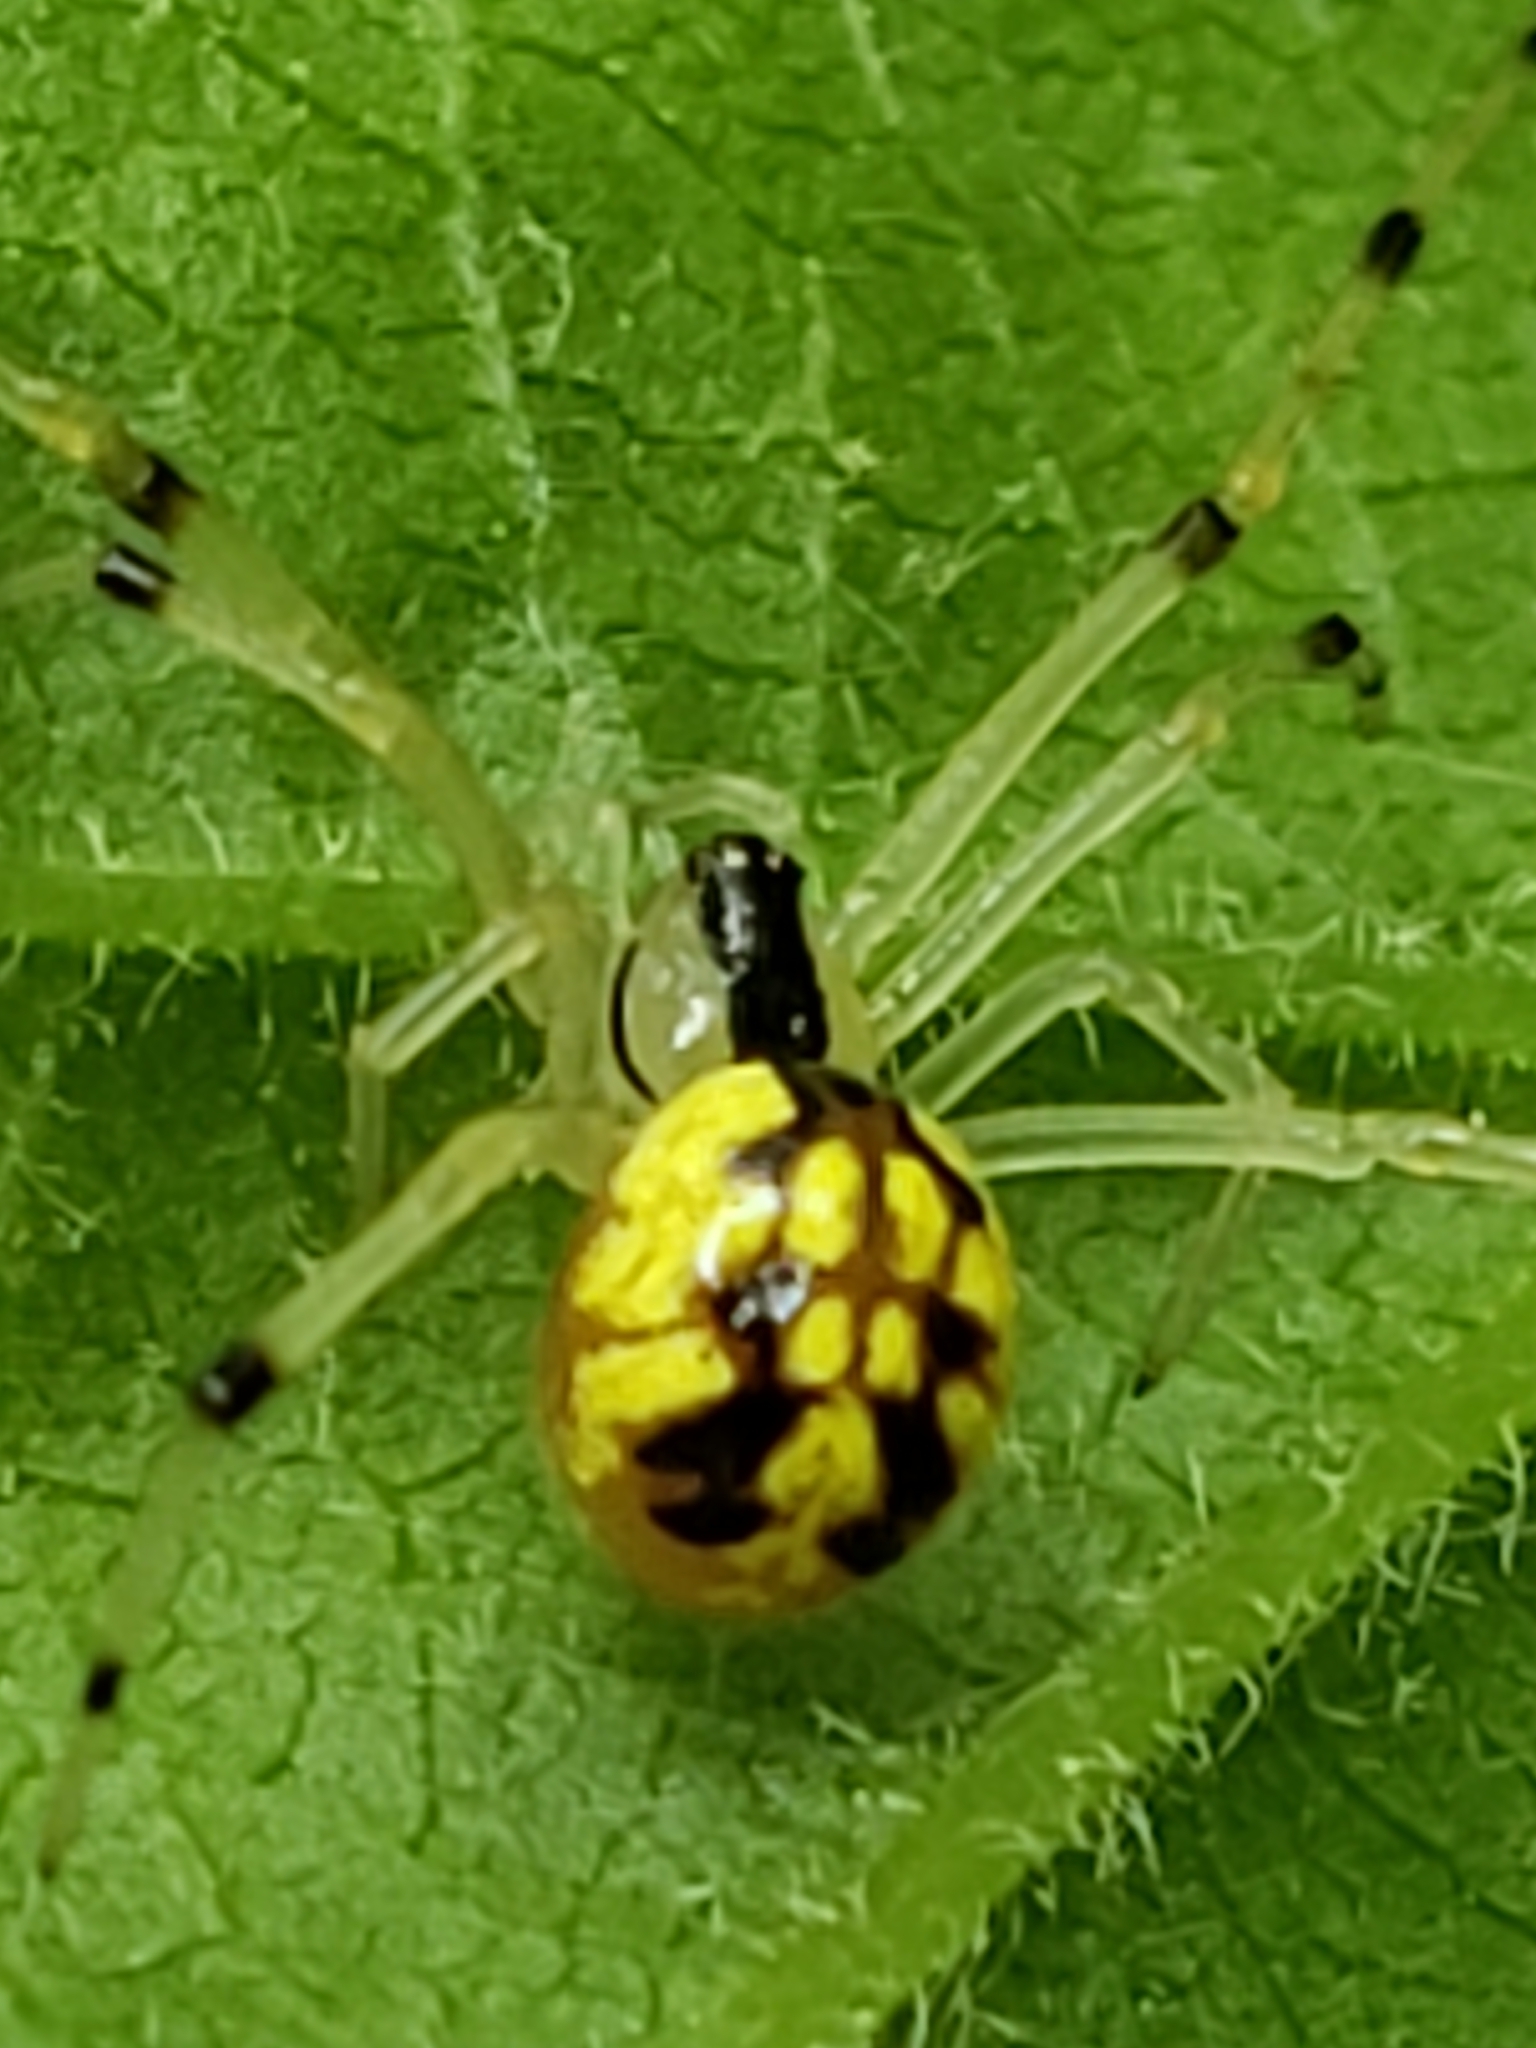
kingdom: Animalia
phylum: Arthropoda
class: Arachnida
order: Araneae
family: Theridiidae
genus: Phylloneta
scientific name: Phylloneta pictipes
